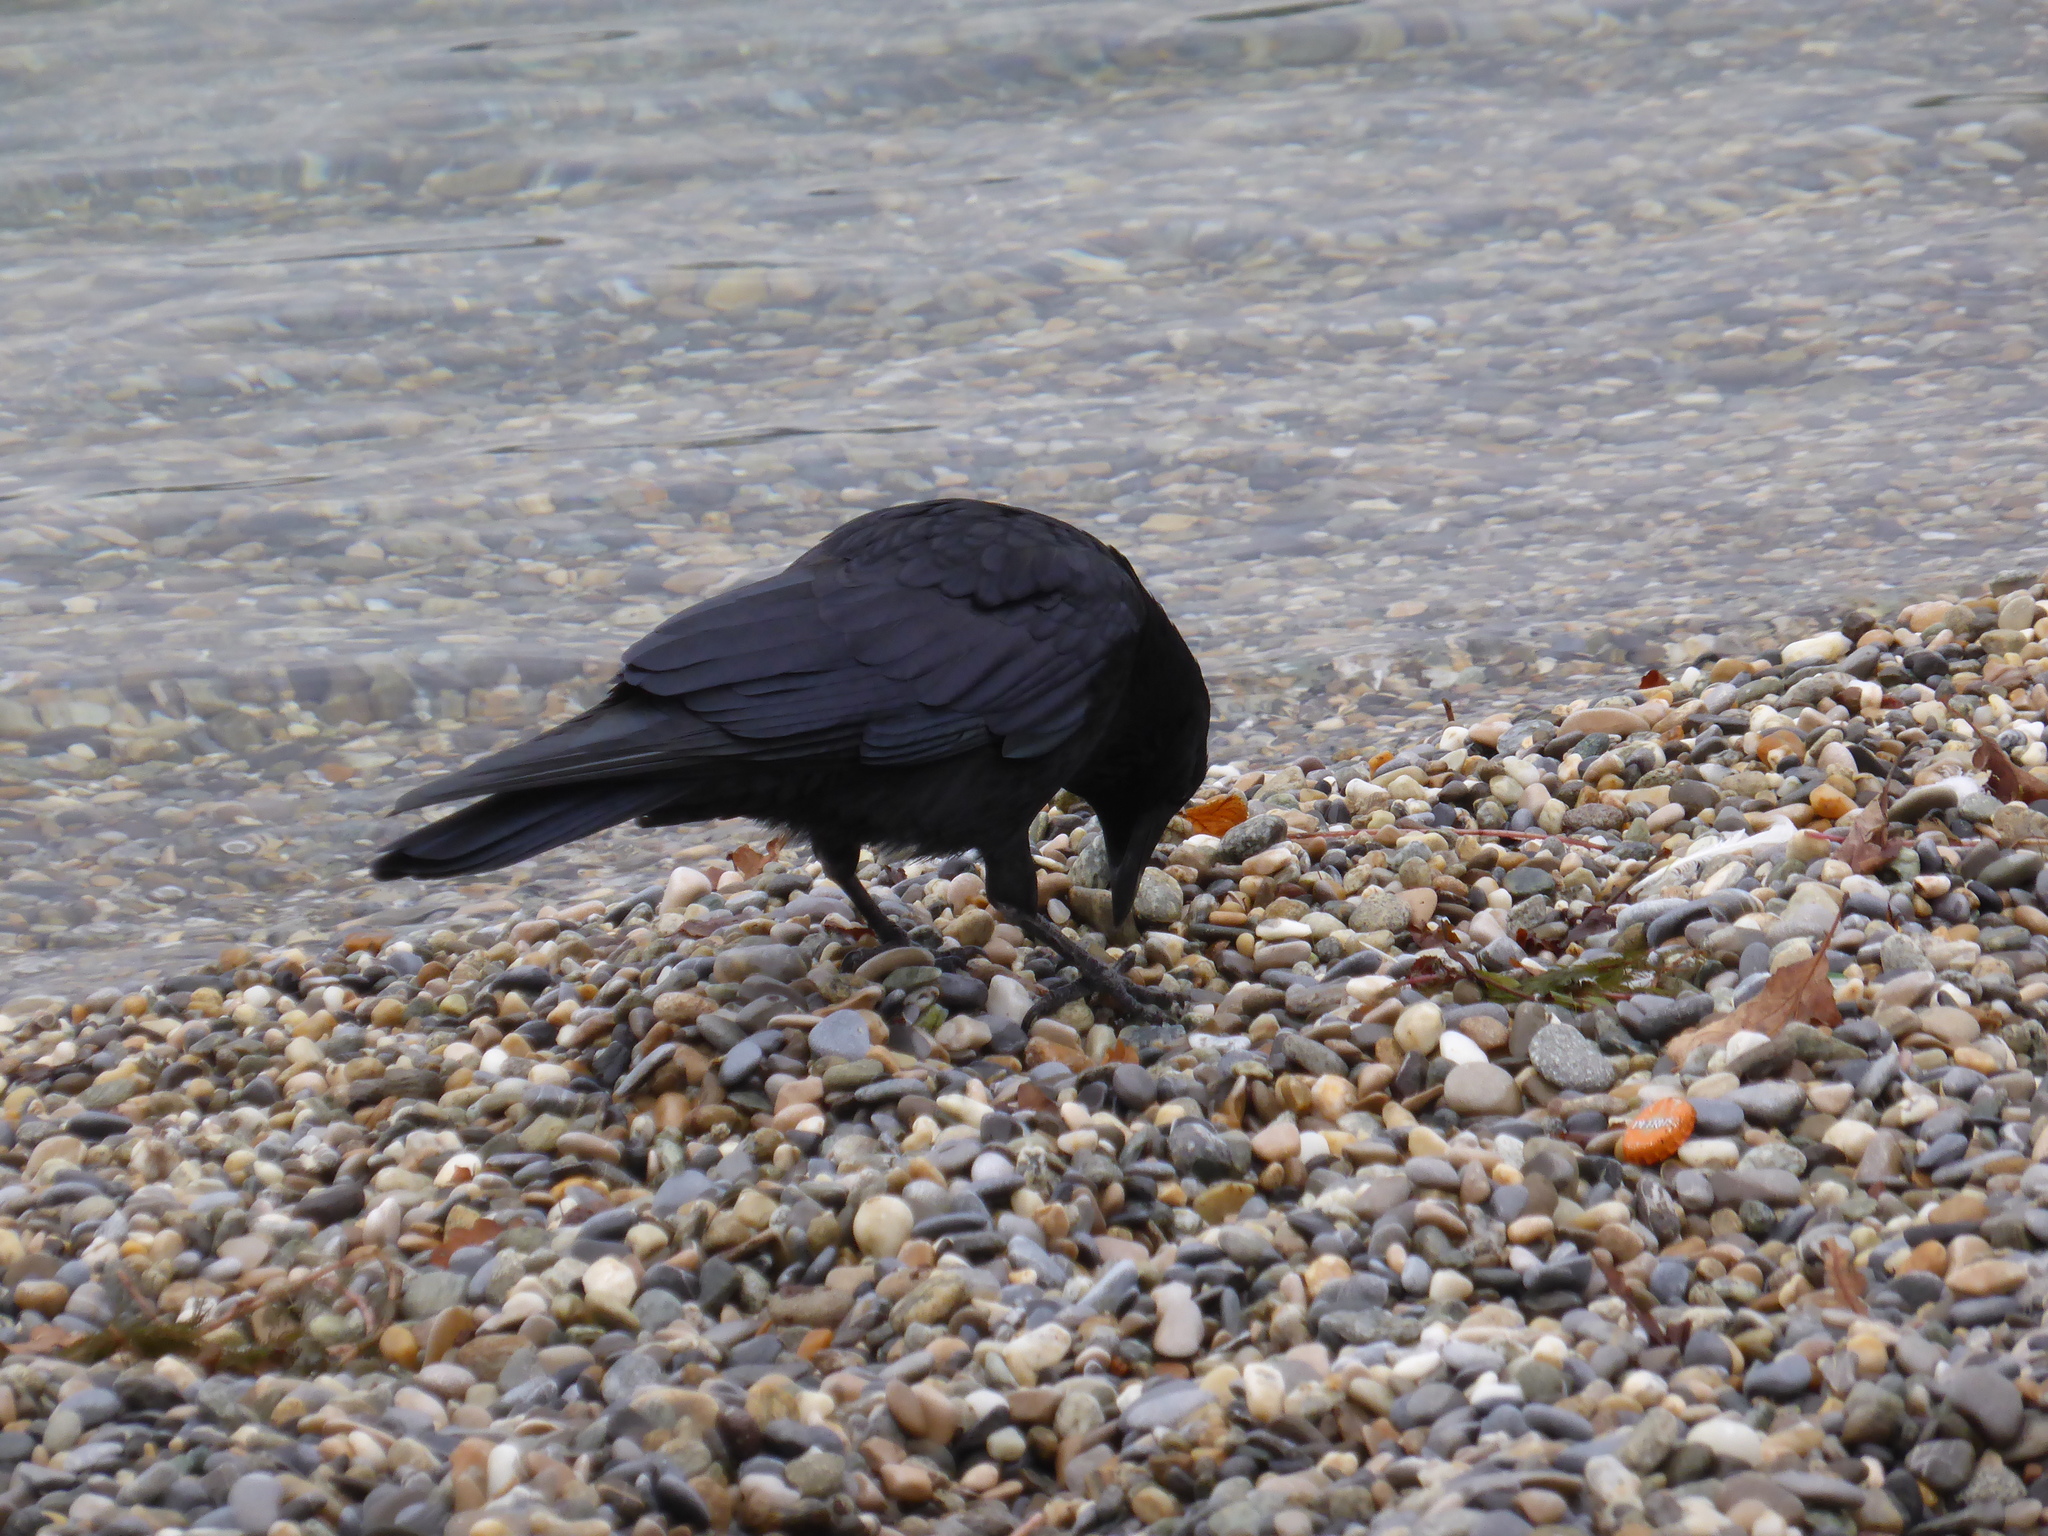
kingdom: Animalia
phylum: Chordata
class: Aves
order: Passeriformes
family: Corvidae
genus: Corvus
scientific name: Corvus corone
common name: Carrion crow
